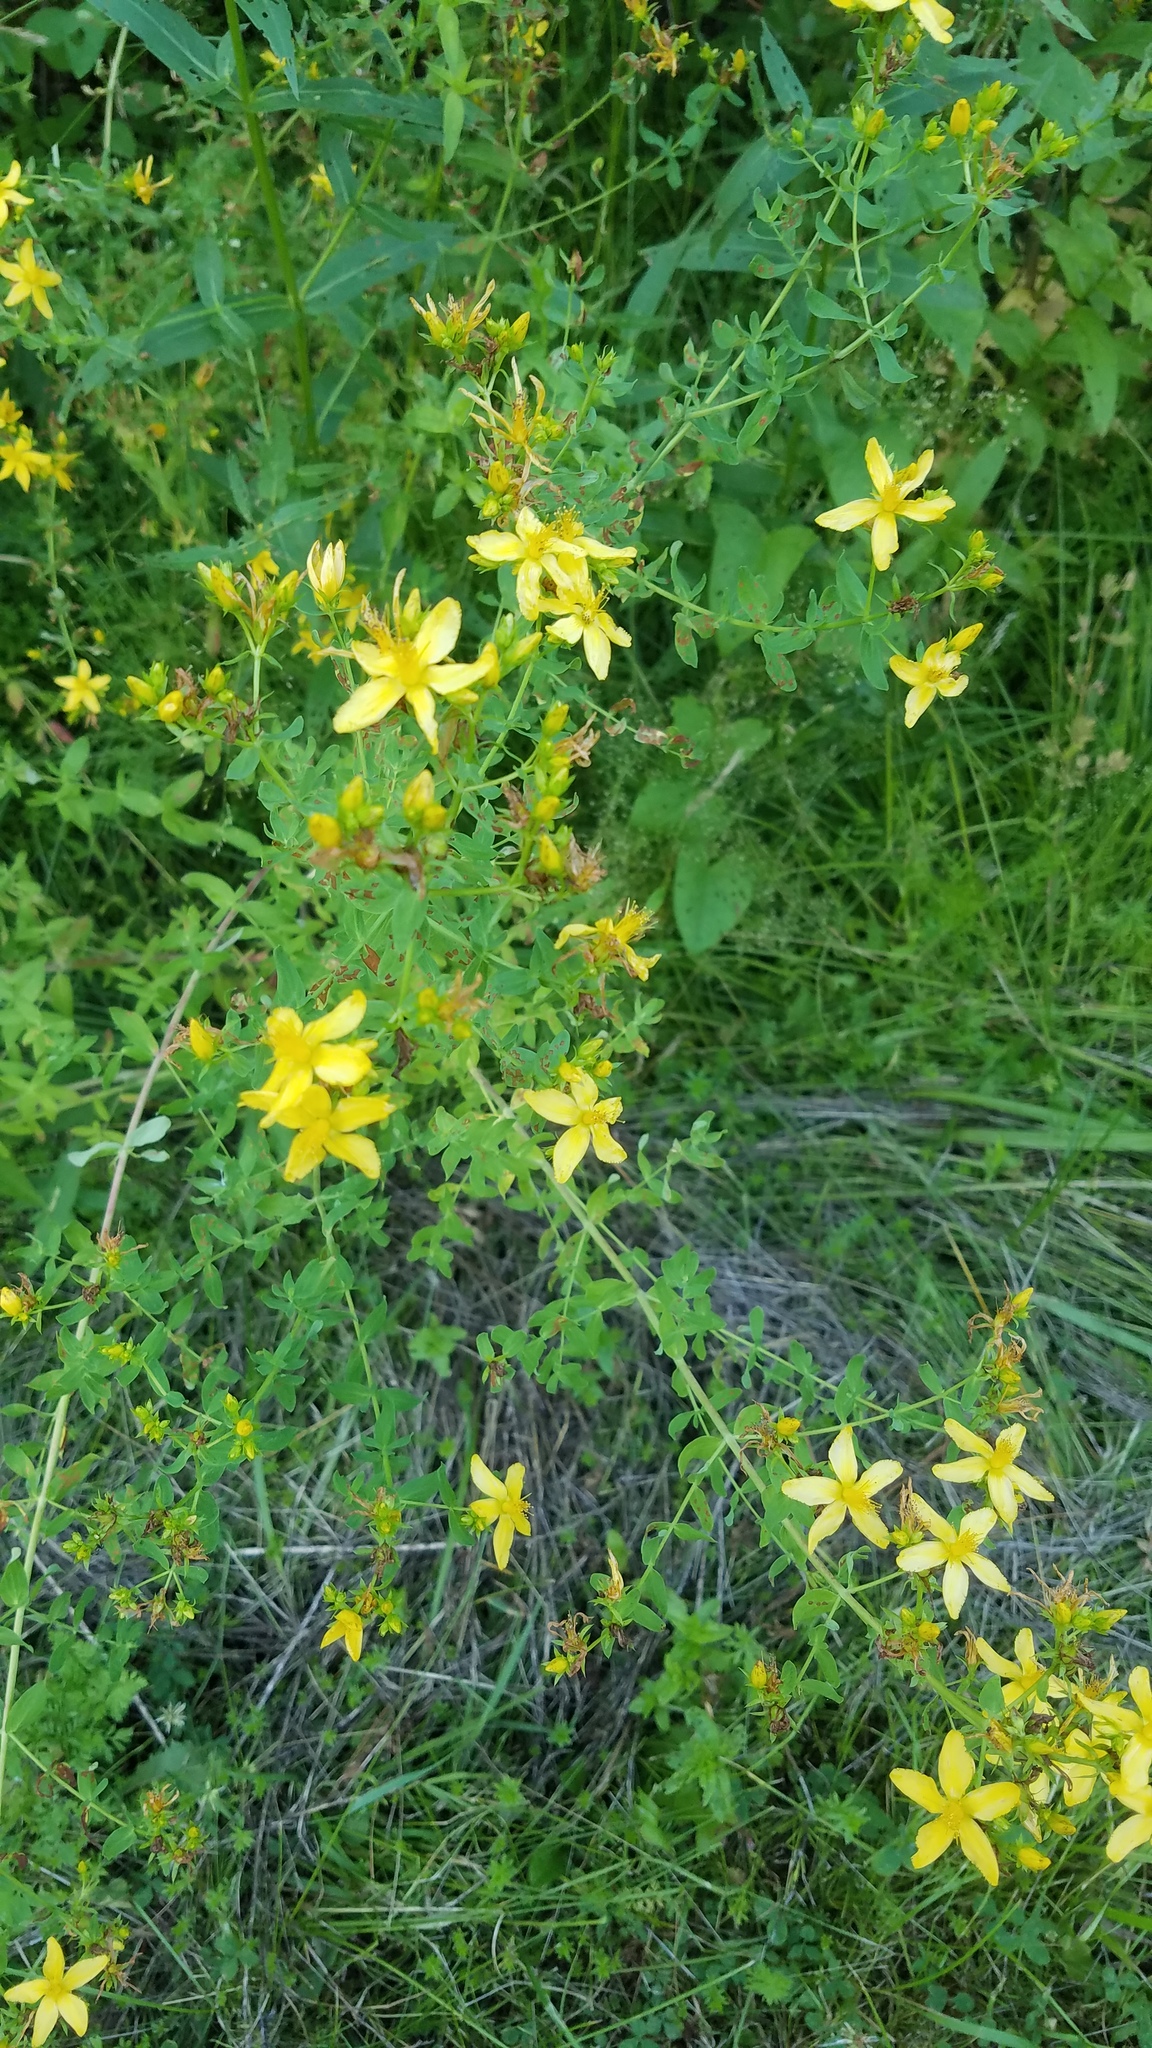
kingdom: Plantae
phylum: Tracheophyta
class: Magnoliopsida
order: Malpighiales
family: Hypericaceae
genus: Hypericum
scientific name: Hypericum perforatum
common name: Common st. johnswort
